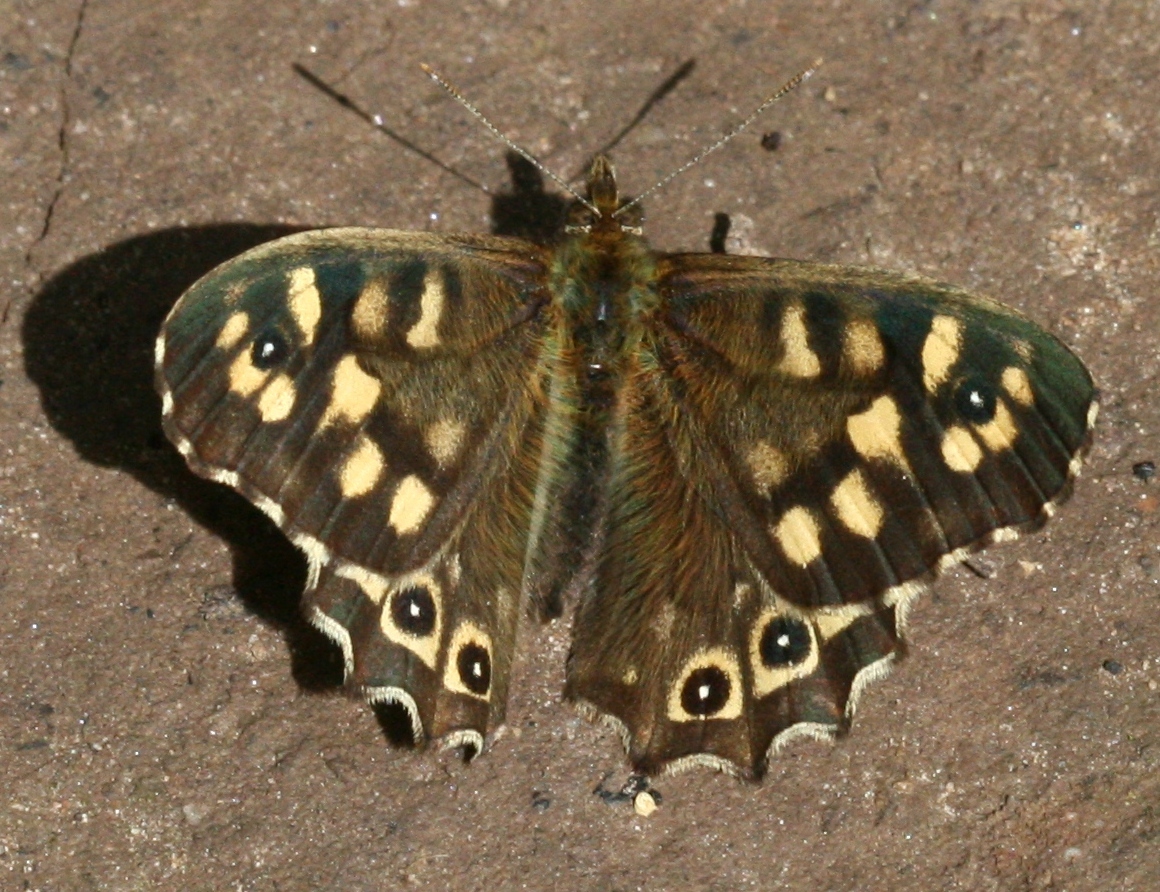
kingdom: Animalia
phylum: Arthropoda
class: Insecta
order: Lepidoptera
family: Nymphalidae
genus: Pararge
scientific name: Pararge aegeria
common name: Speckled wood
